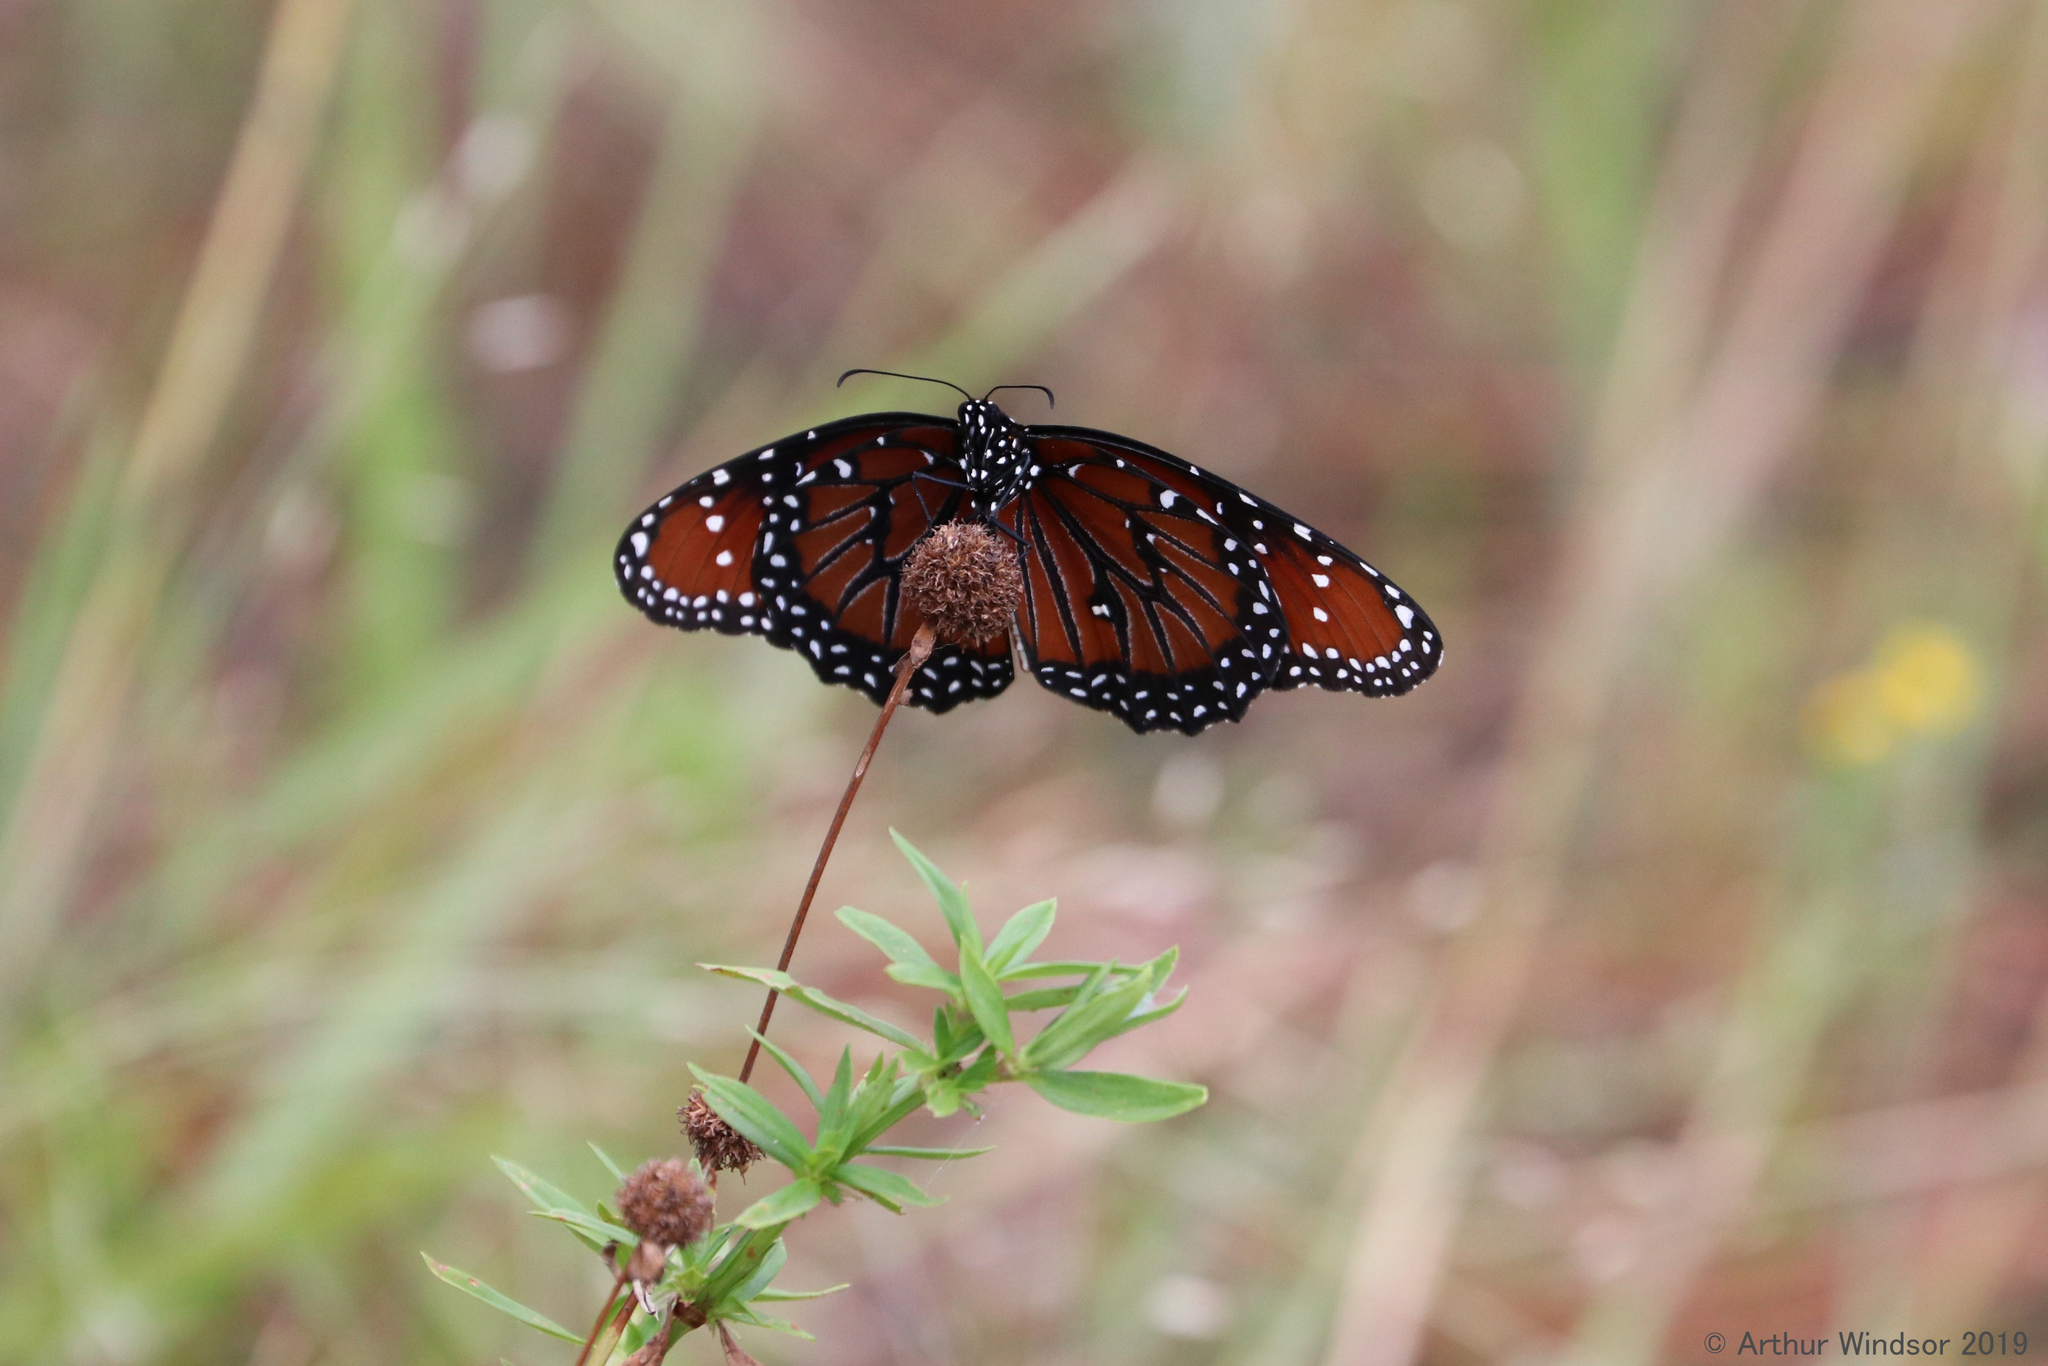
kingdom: Animalia
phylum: Arthropoda
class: Insecta
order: Lepidoptera
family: Nymphalidae
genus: Danaus
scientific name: Danaus gilippus
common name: Queen
